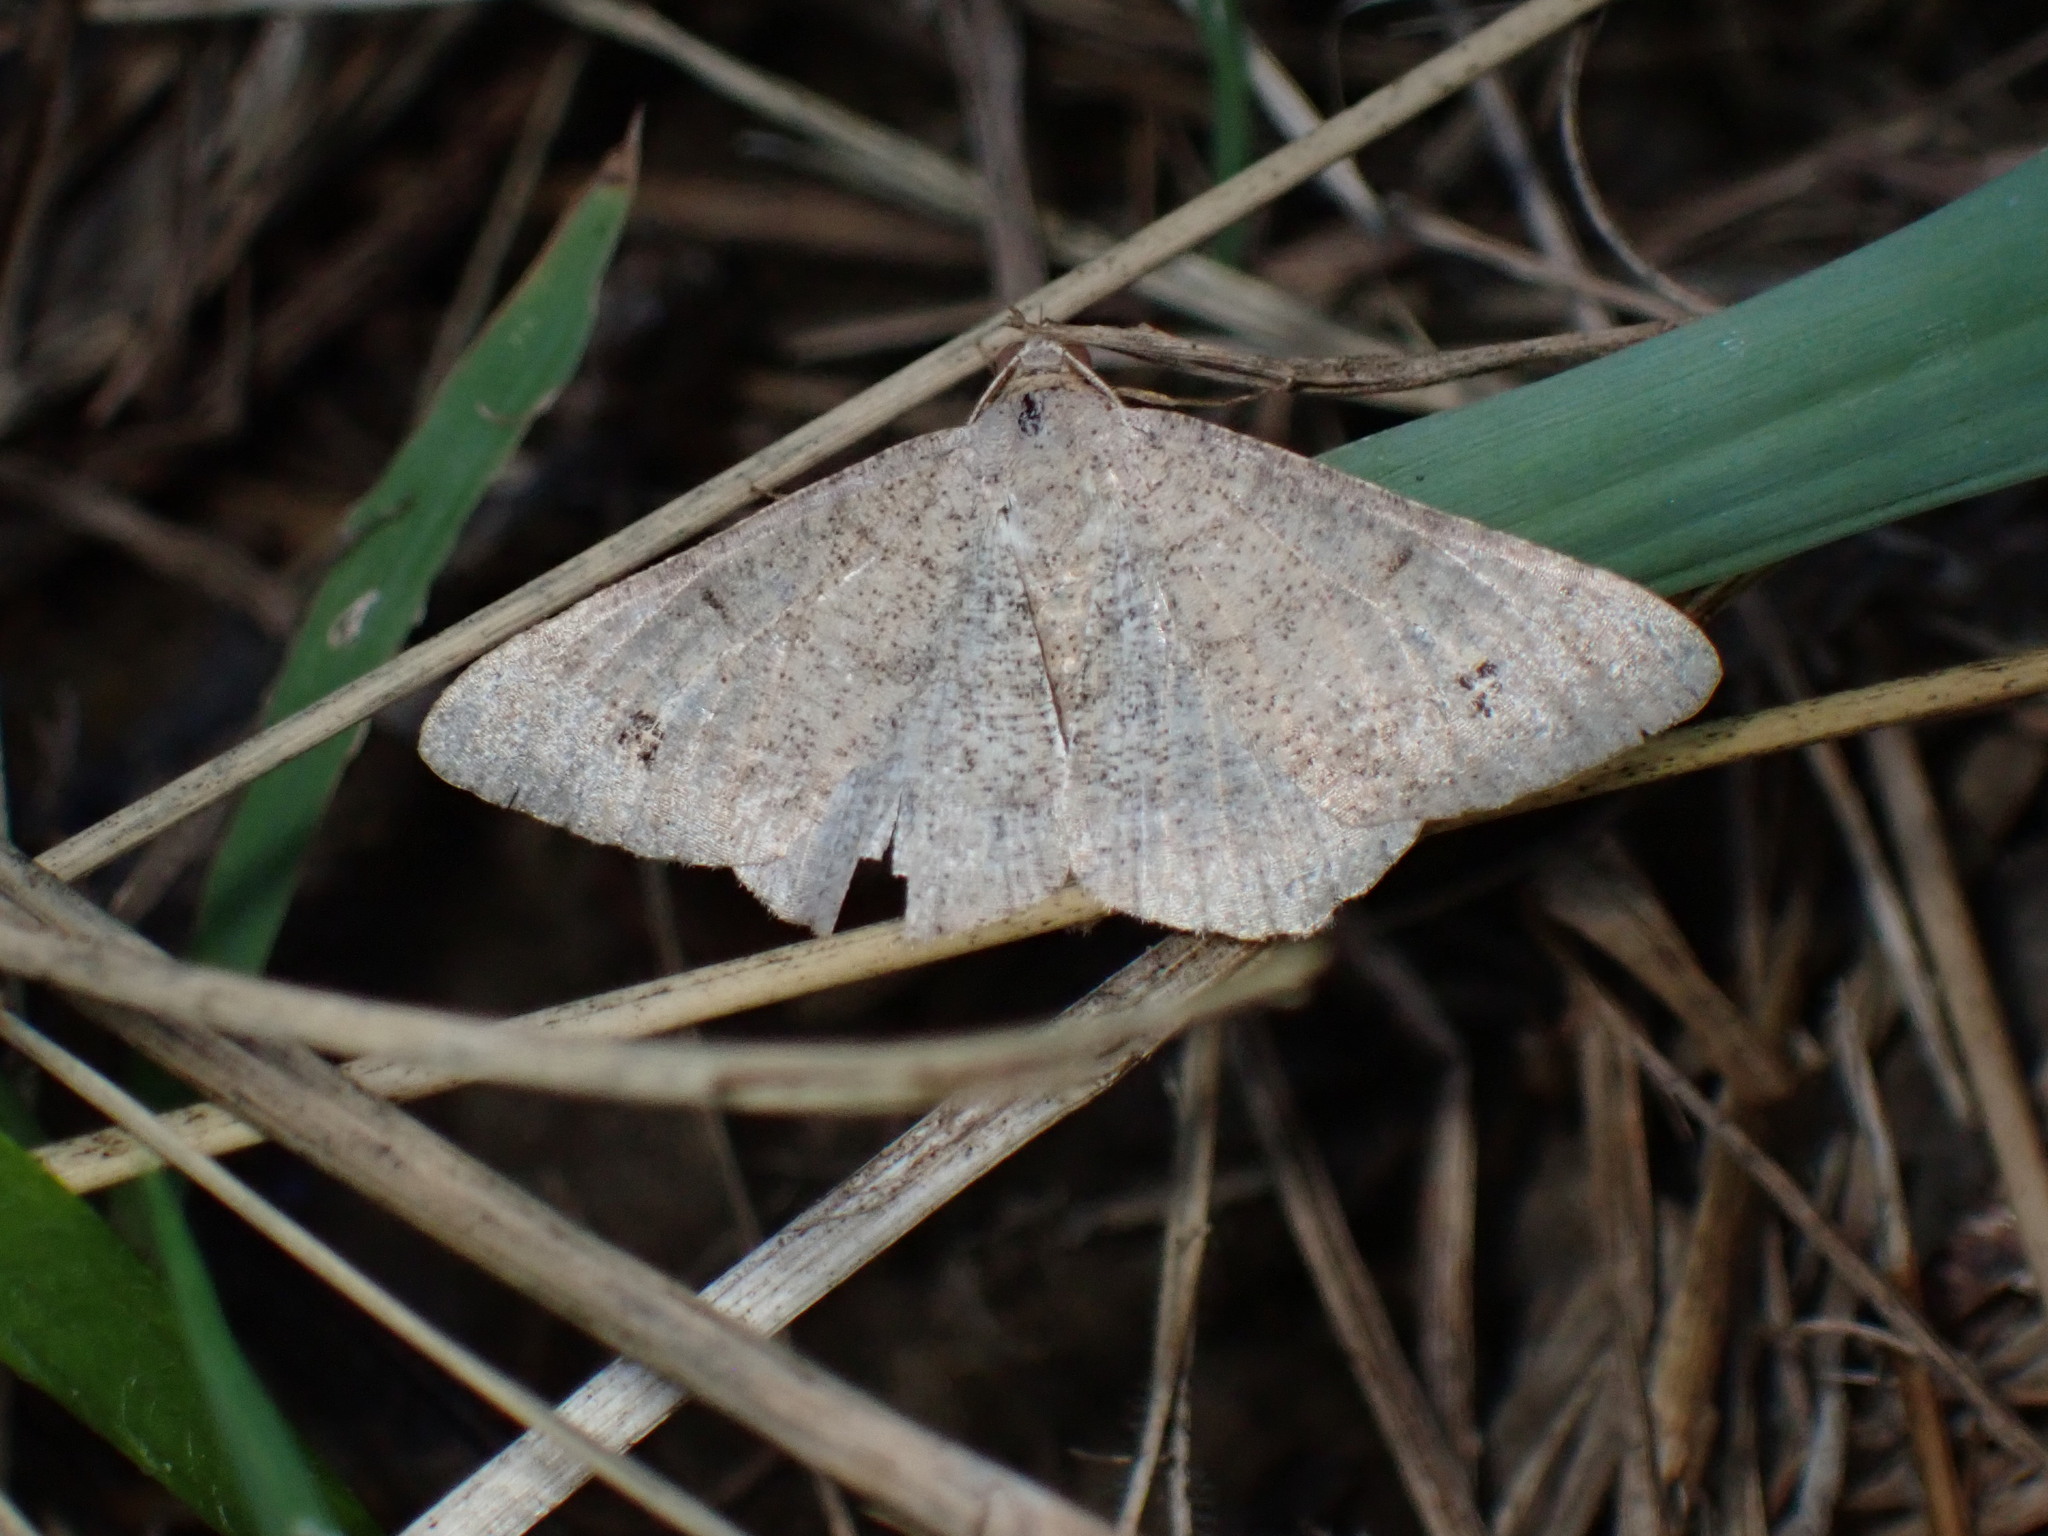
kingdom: Animalia
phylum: Arthropoda
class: Insecta
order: Lepidoptera
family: Geometridae
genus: Digrammia
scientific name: Digrammia muscariata
